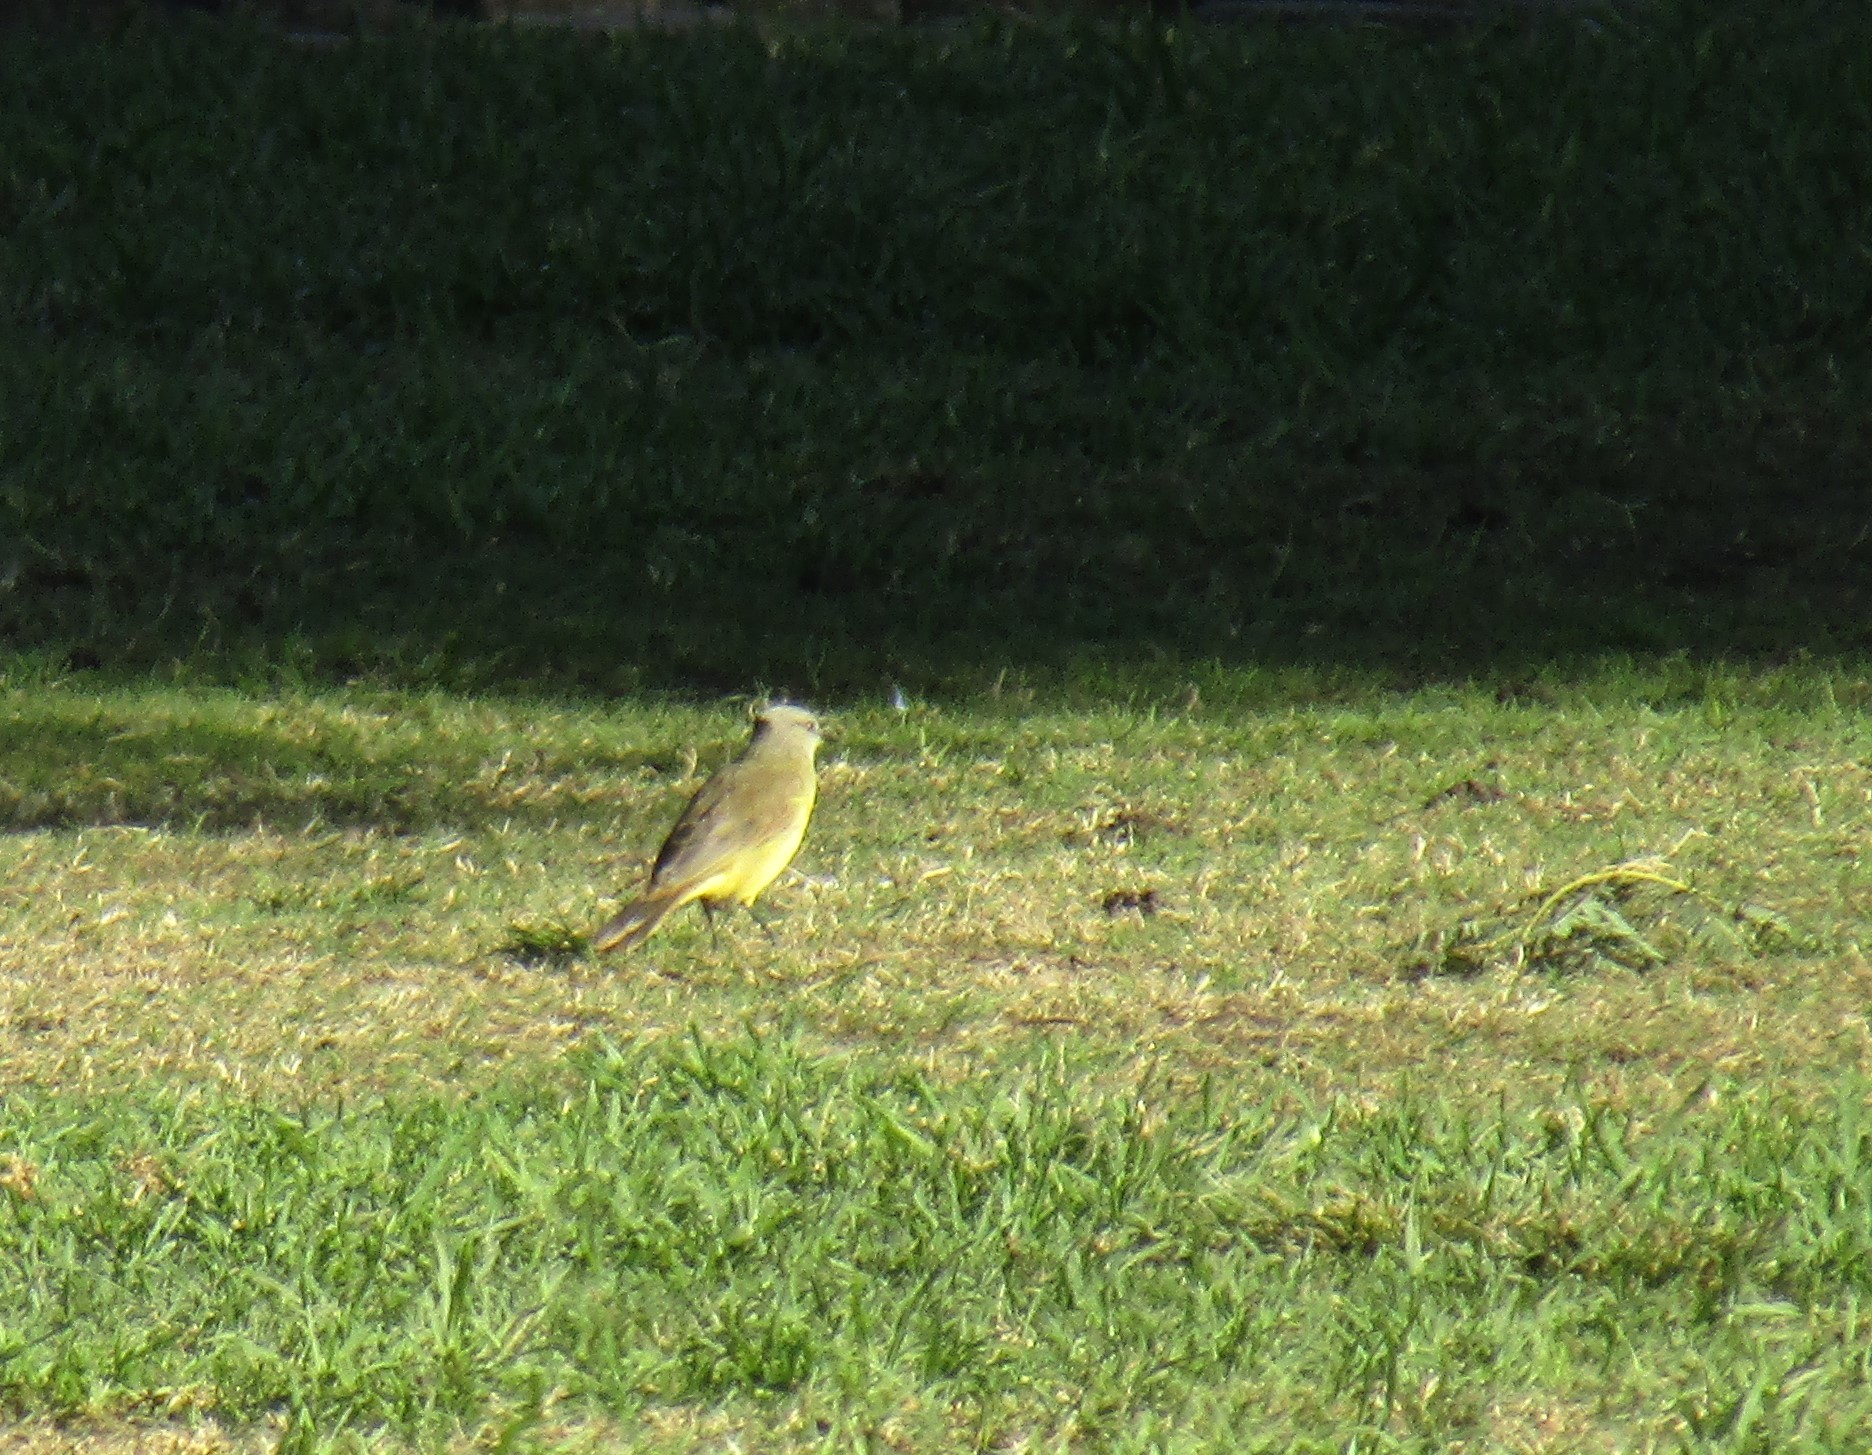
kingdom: Animalia
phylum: Chordata
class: Aves
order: Passeriformes
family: Tyrannidae
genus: Machetornis
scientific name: Machetornis rixosa
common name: Cattle tyrant
